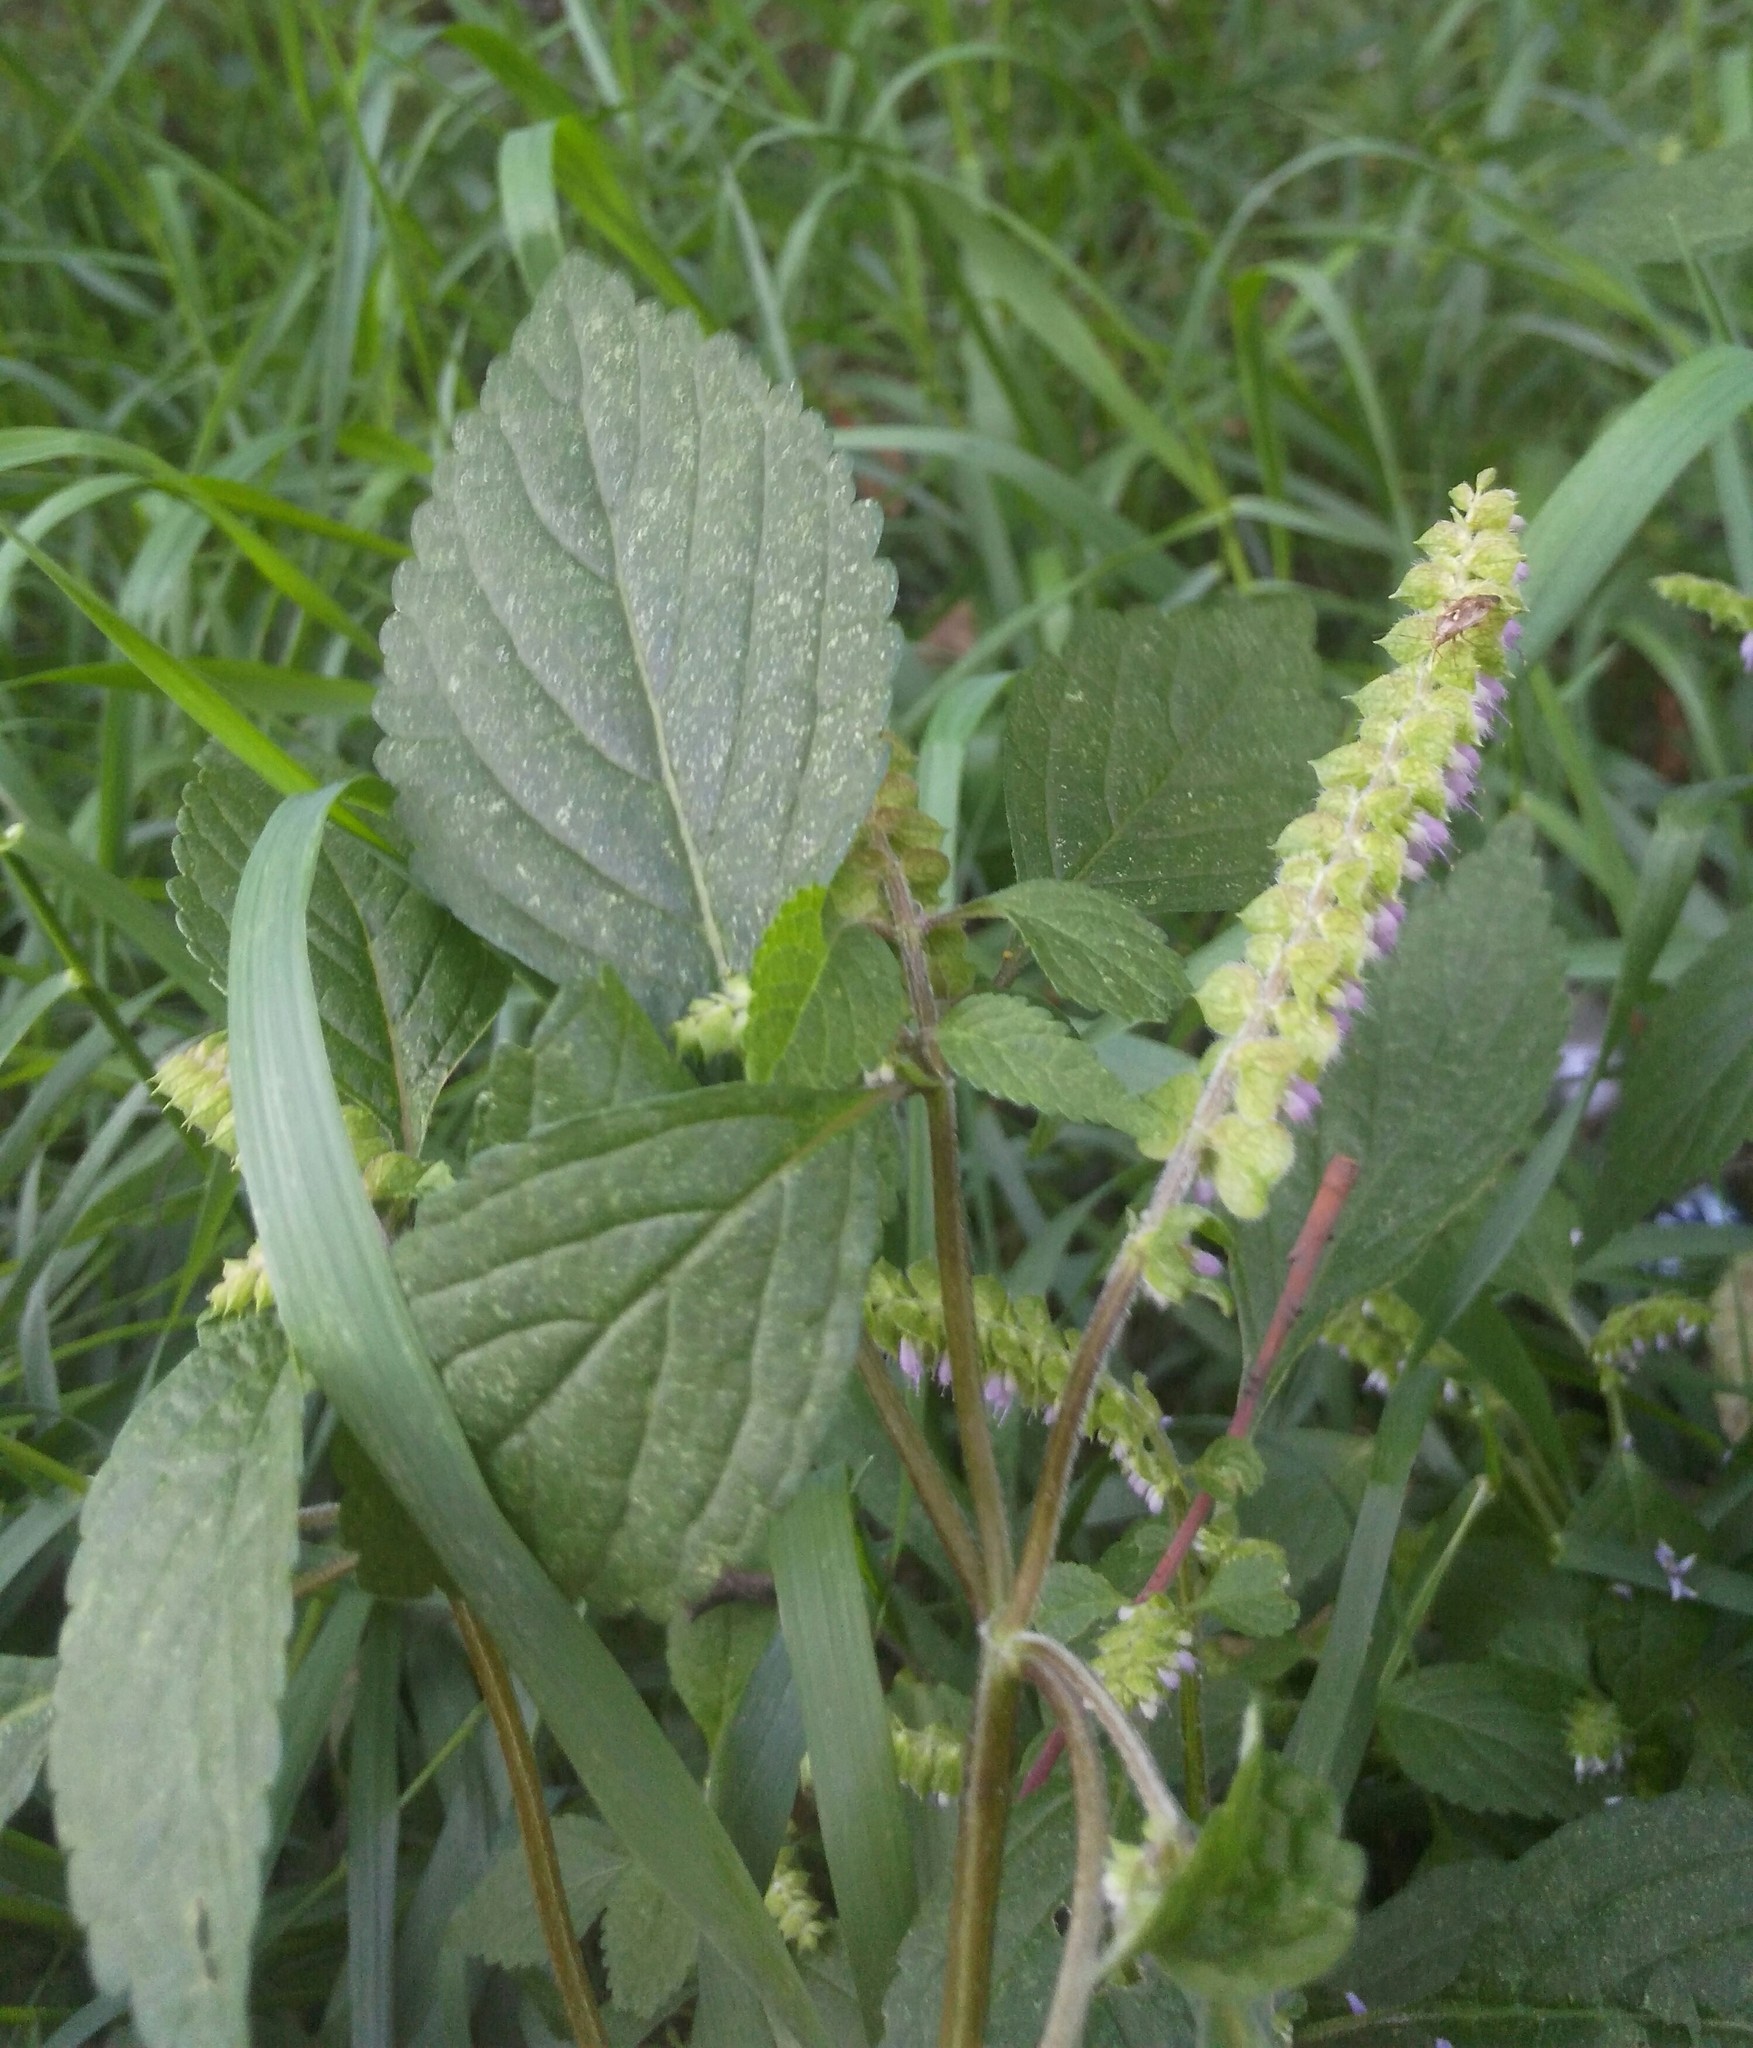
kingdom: Plantae
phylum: Tracheophyta
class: Magnoliopsida
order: Lamiales
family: Lamiaceae
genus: Elsholtzia
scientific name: Elsholtzia ciliata
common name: Ciliate elsholtzia
